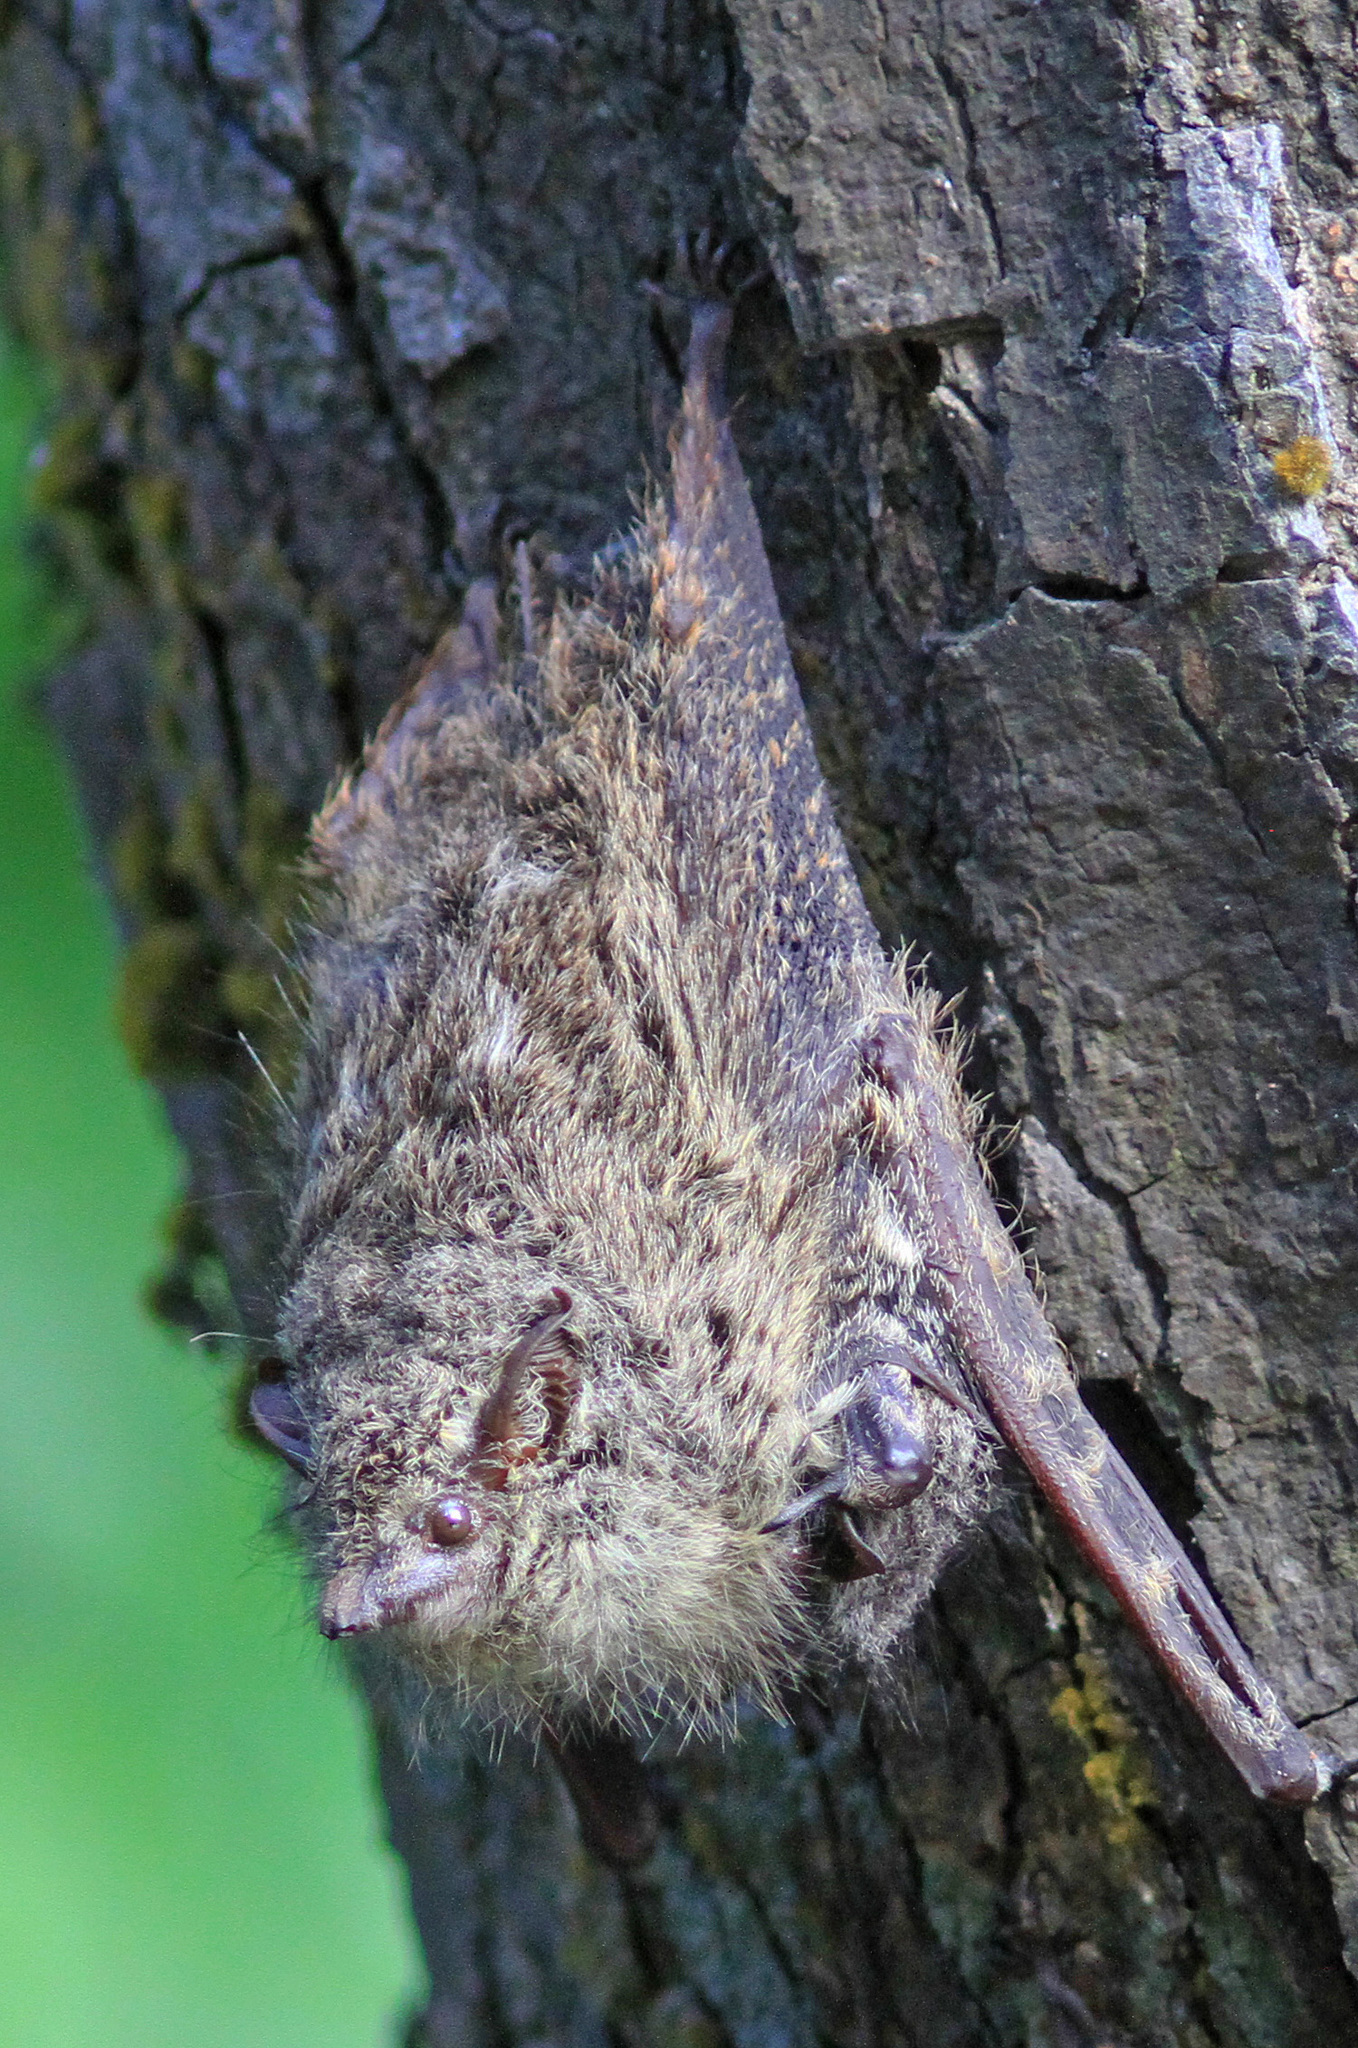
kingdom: Animalia
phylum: Chordata
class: Mammalia
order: Chiroptera
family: Emballonuridae
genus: Rhynchonycteris
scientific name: Rhynchonycteris naso
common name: Proboscis bat
